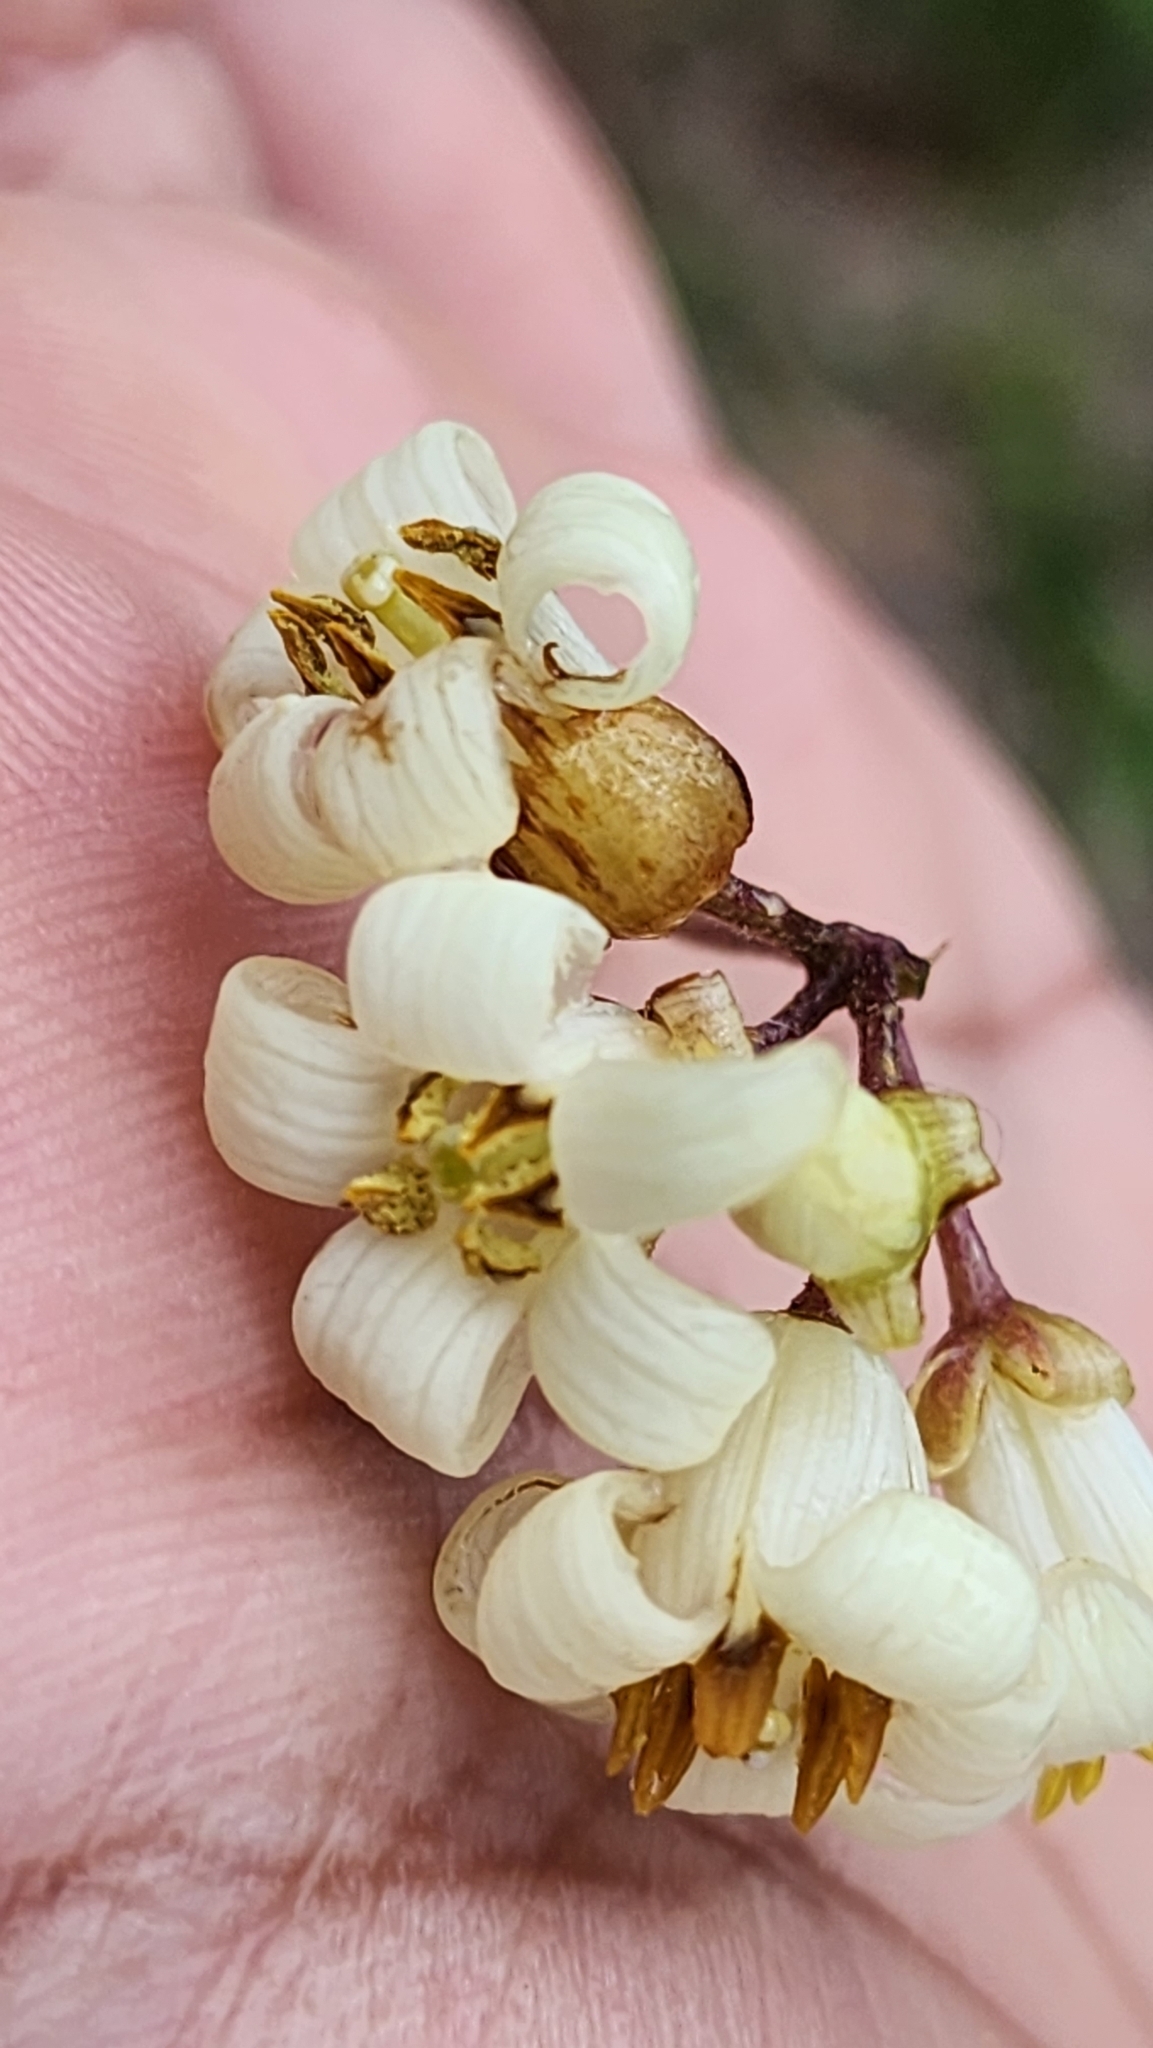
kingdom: Plantae
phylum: Tracheophyta
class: Magnoliopsida
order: Apiales
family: Pittosporaceae
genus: Pittosporum
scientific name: Pittosporum undulatum
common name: Australian cheesewood
